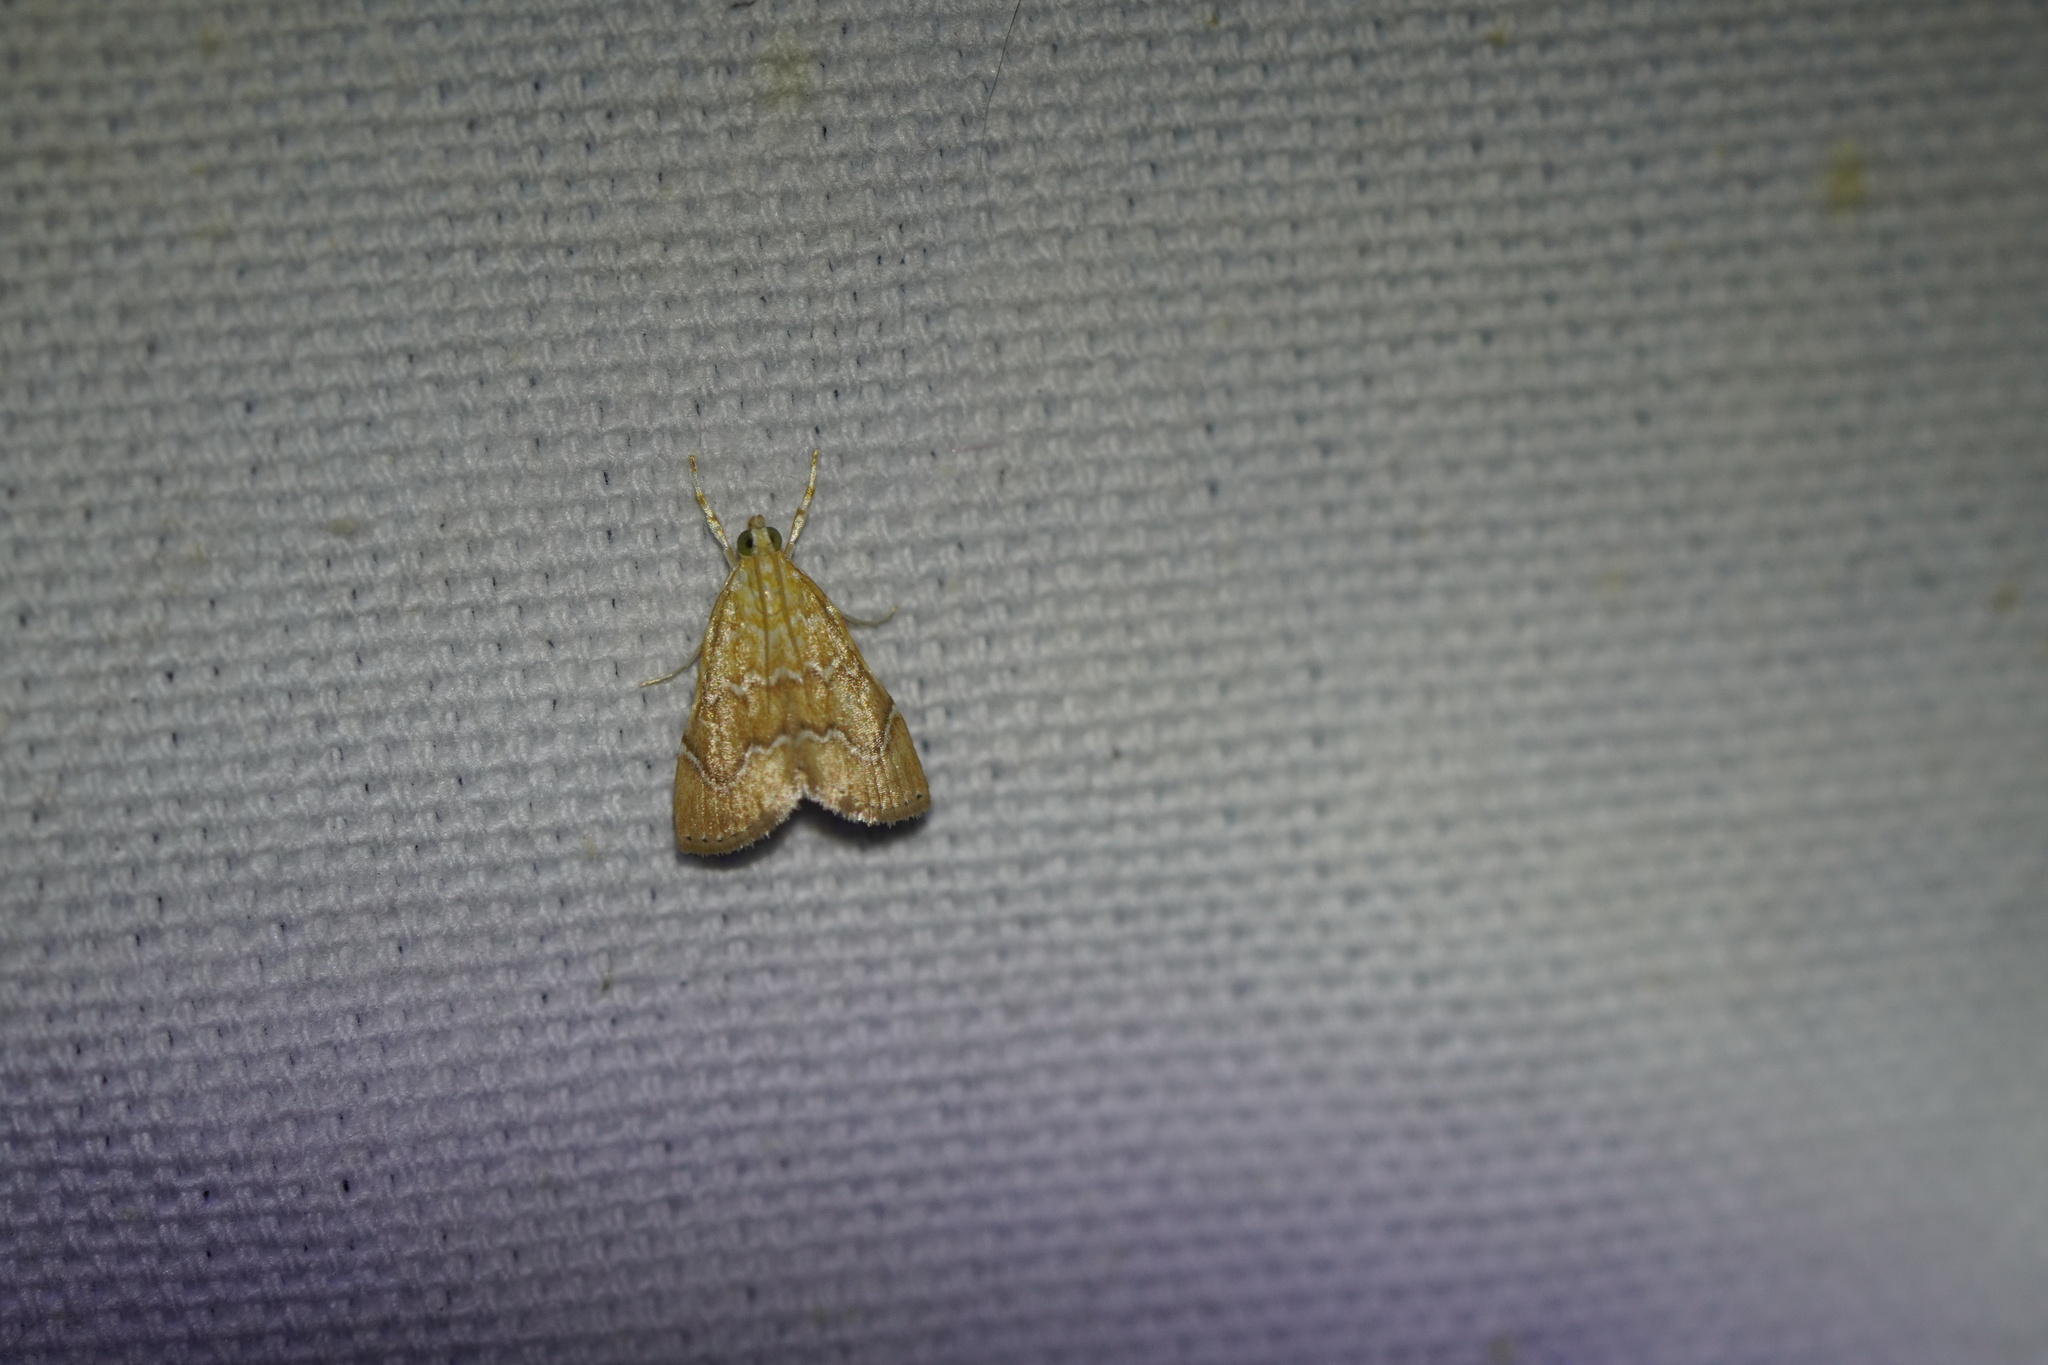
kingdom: Animalia
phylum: Arthropoda
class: Insecta
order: Lepidoptera
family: Crambidae
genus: Glaphyria
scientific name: Glaphyria sesquistrialis
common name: White-roped glaphyria
